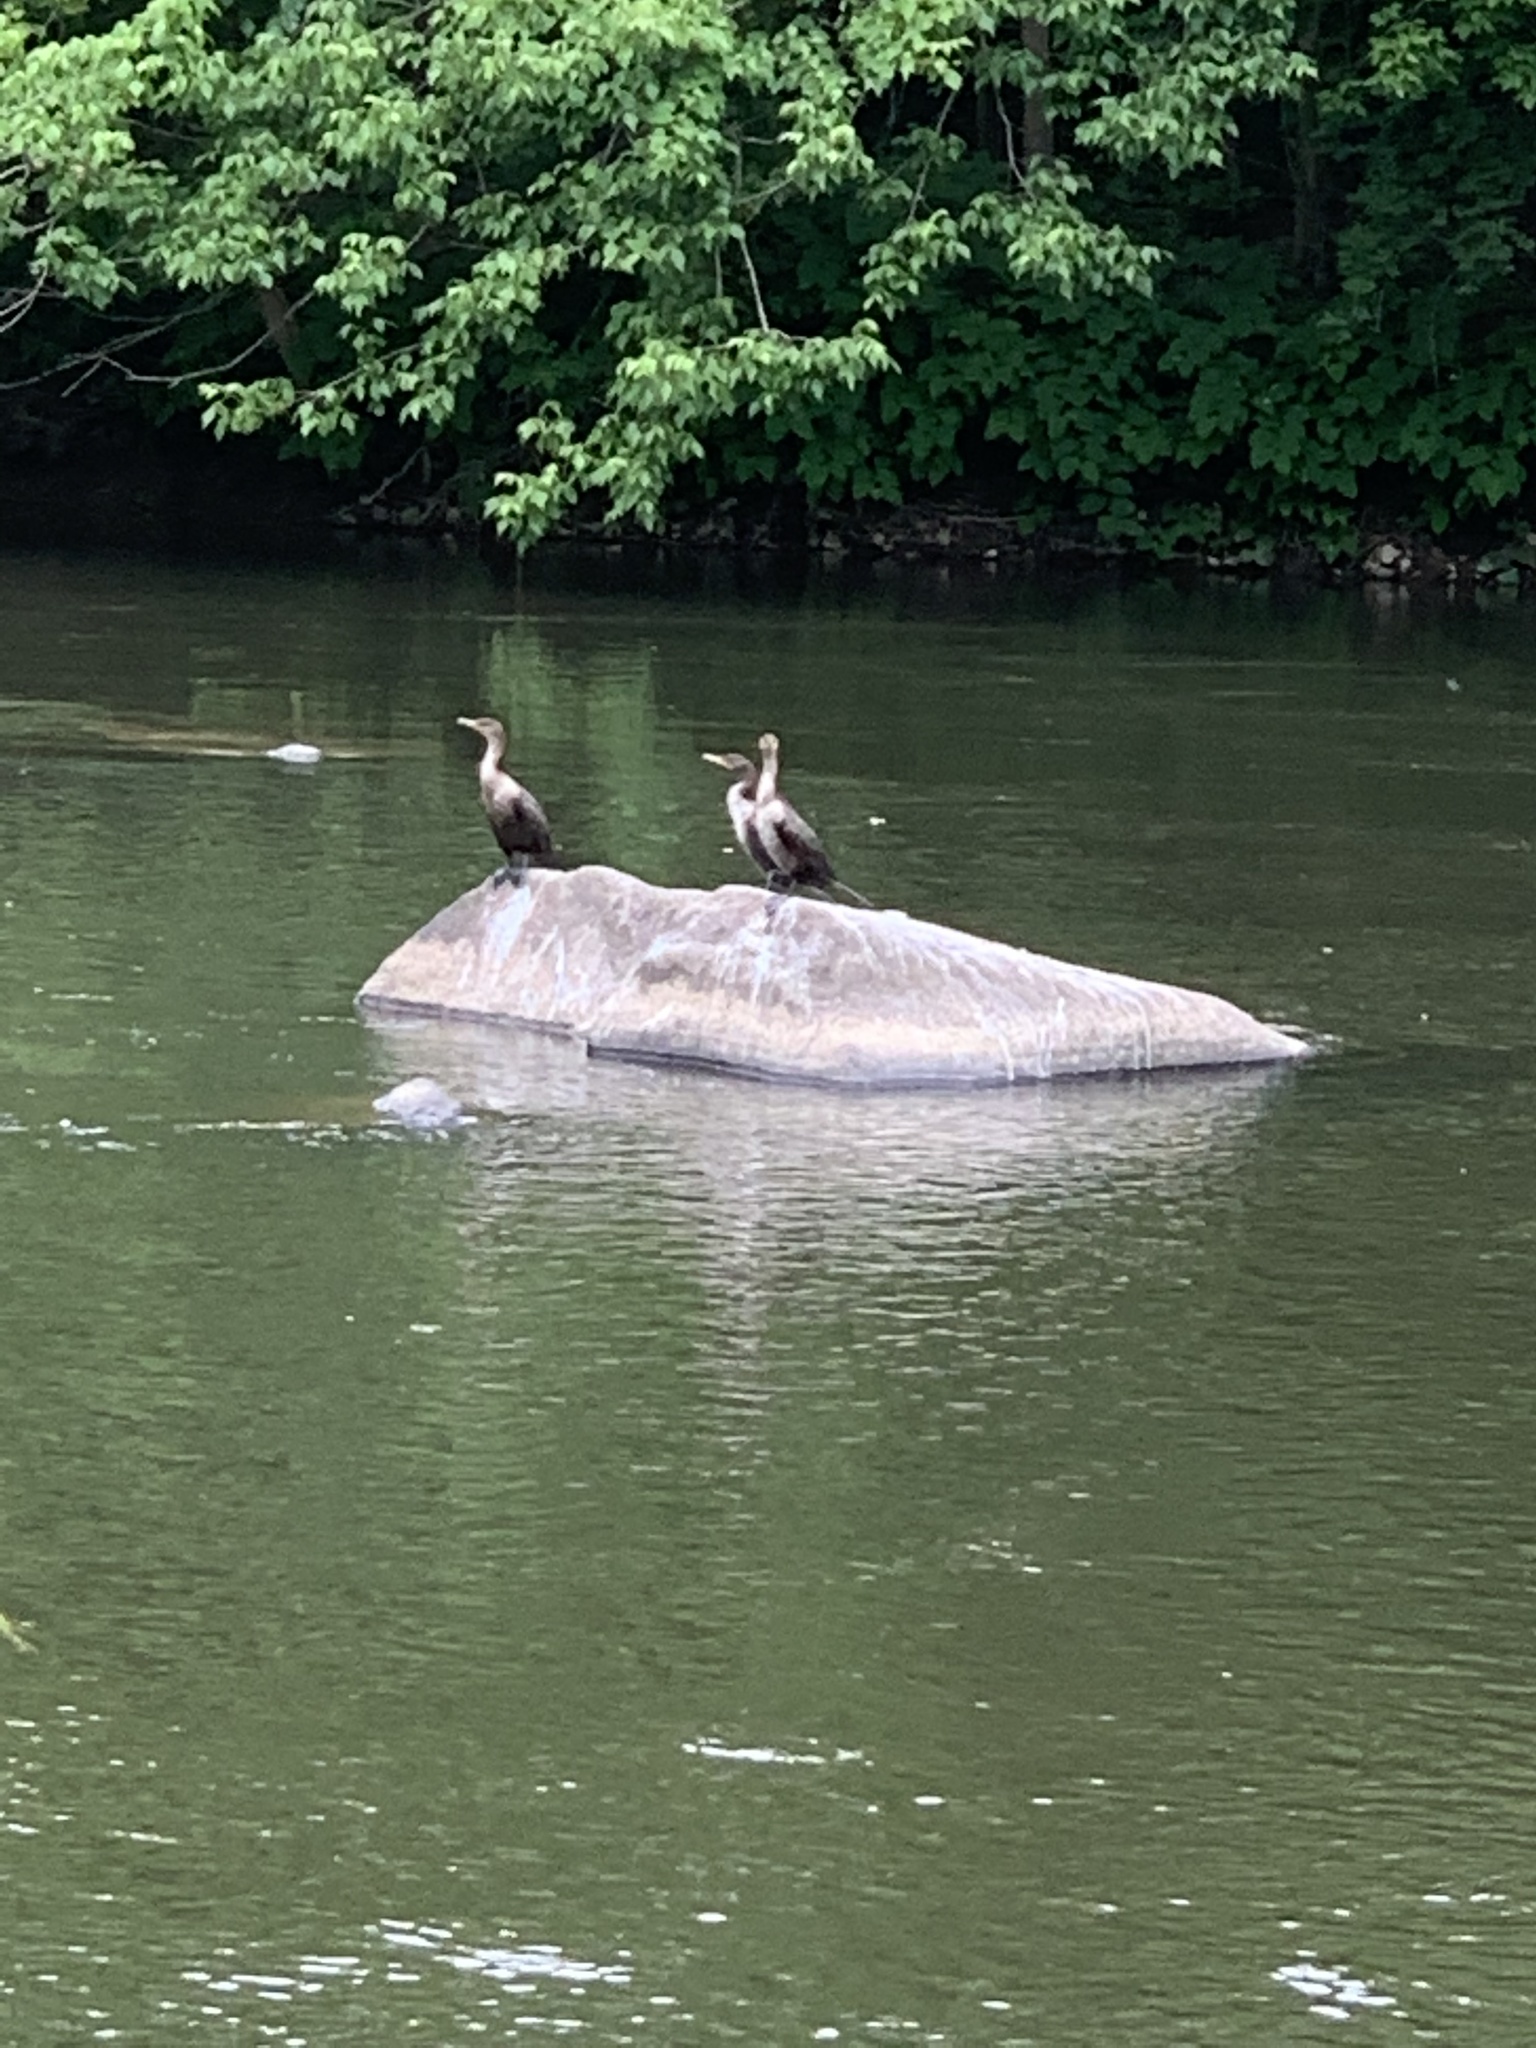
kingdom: Animalia
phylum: Chordata
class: Aves
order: Suliformes
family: Phalacrocoracidae
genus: Phalacrocorax
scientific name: Phalacrocorax auritus
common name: Double-crested cormorant
